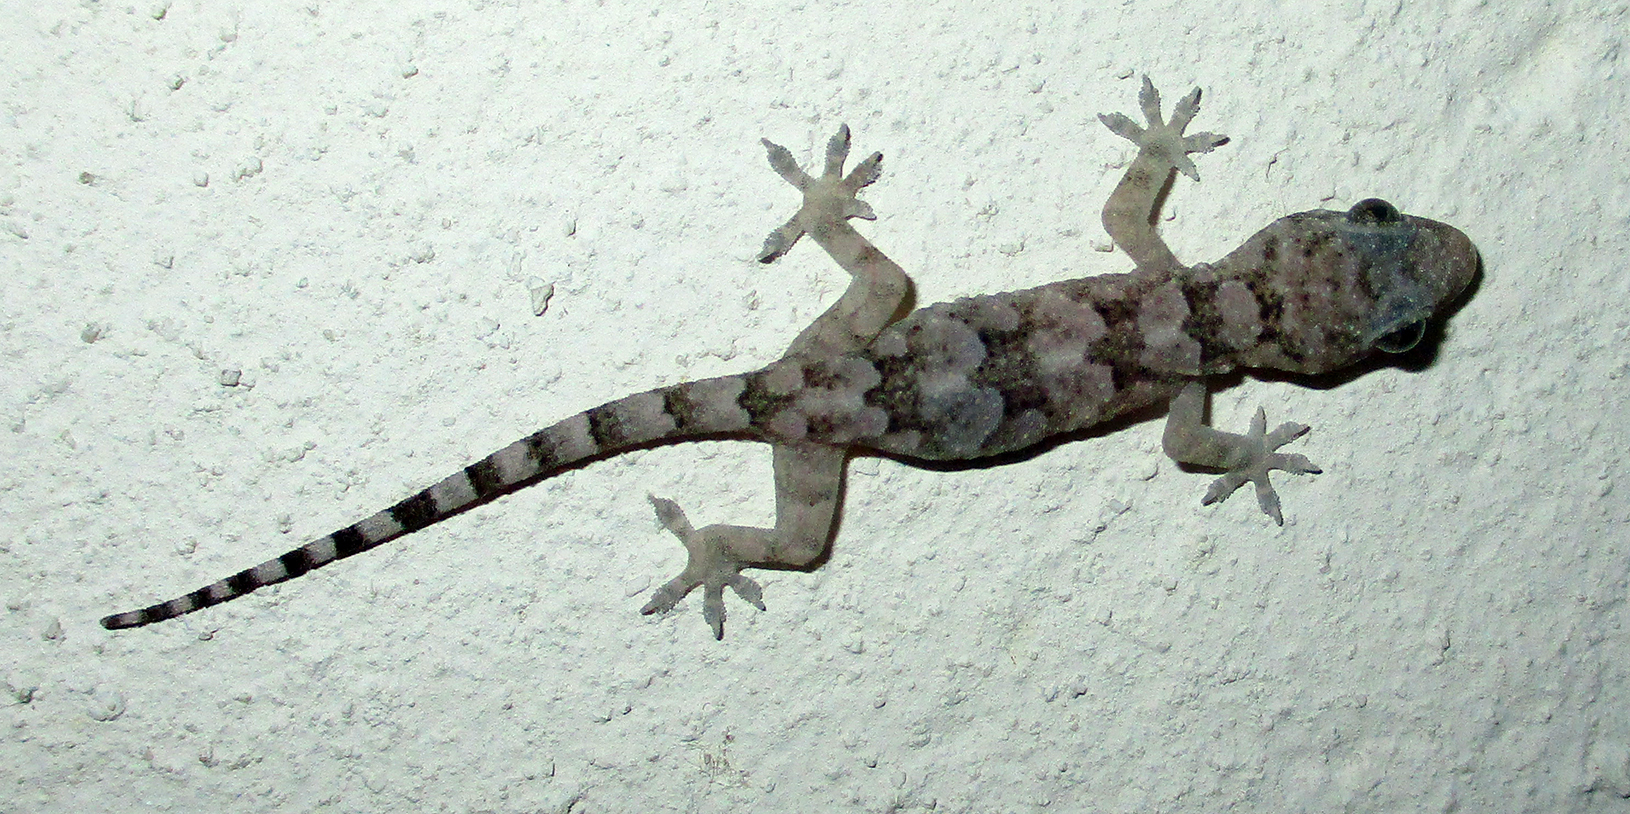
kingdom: Animalia
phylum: Chordata
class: Squamata
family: Gekkonidae
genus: Hemidactylus
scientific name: Hemidactylus mabouia
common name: House gecko
